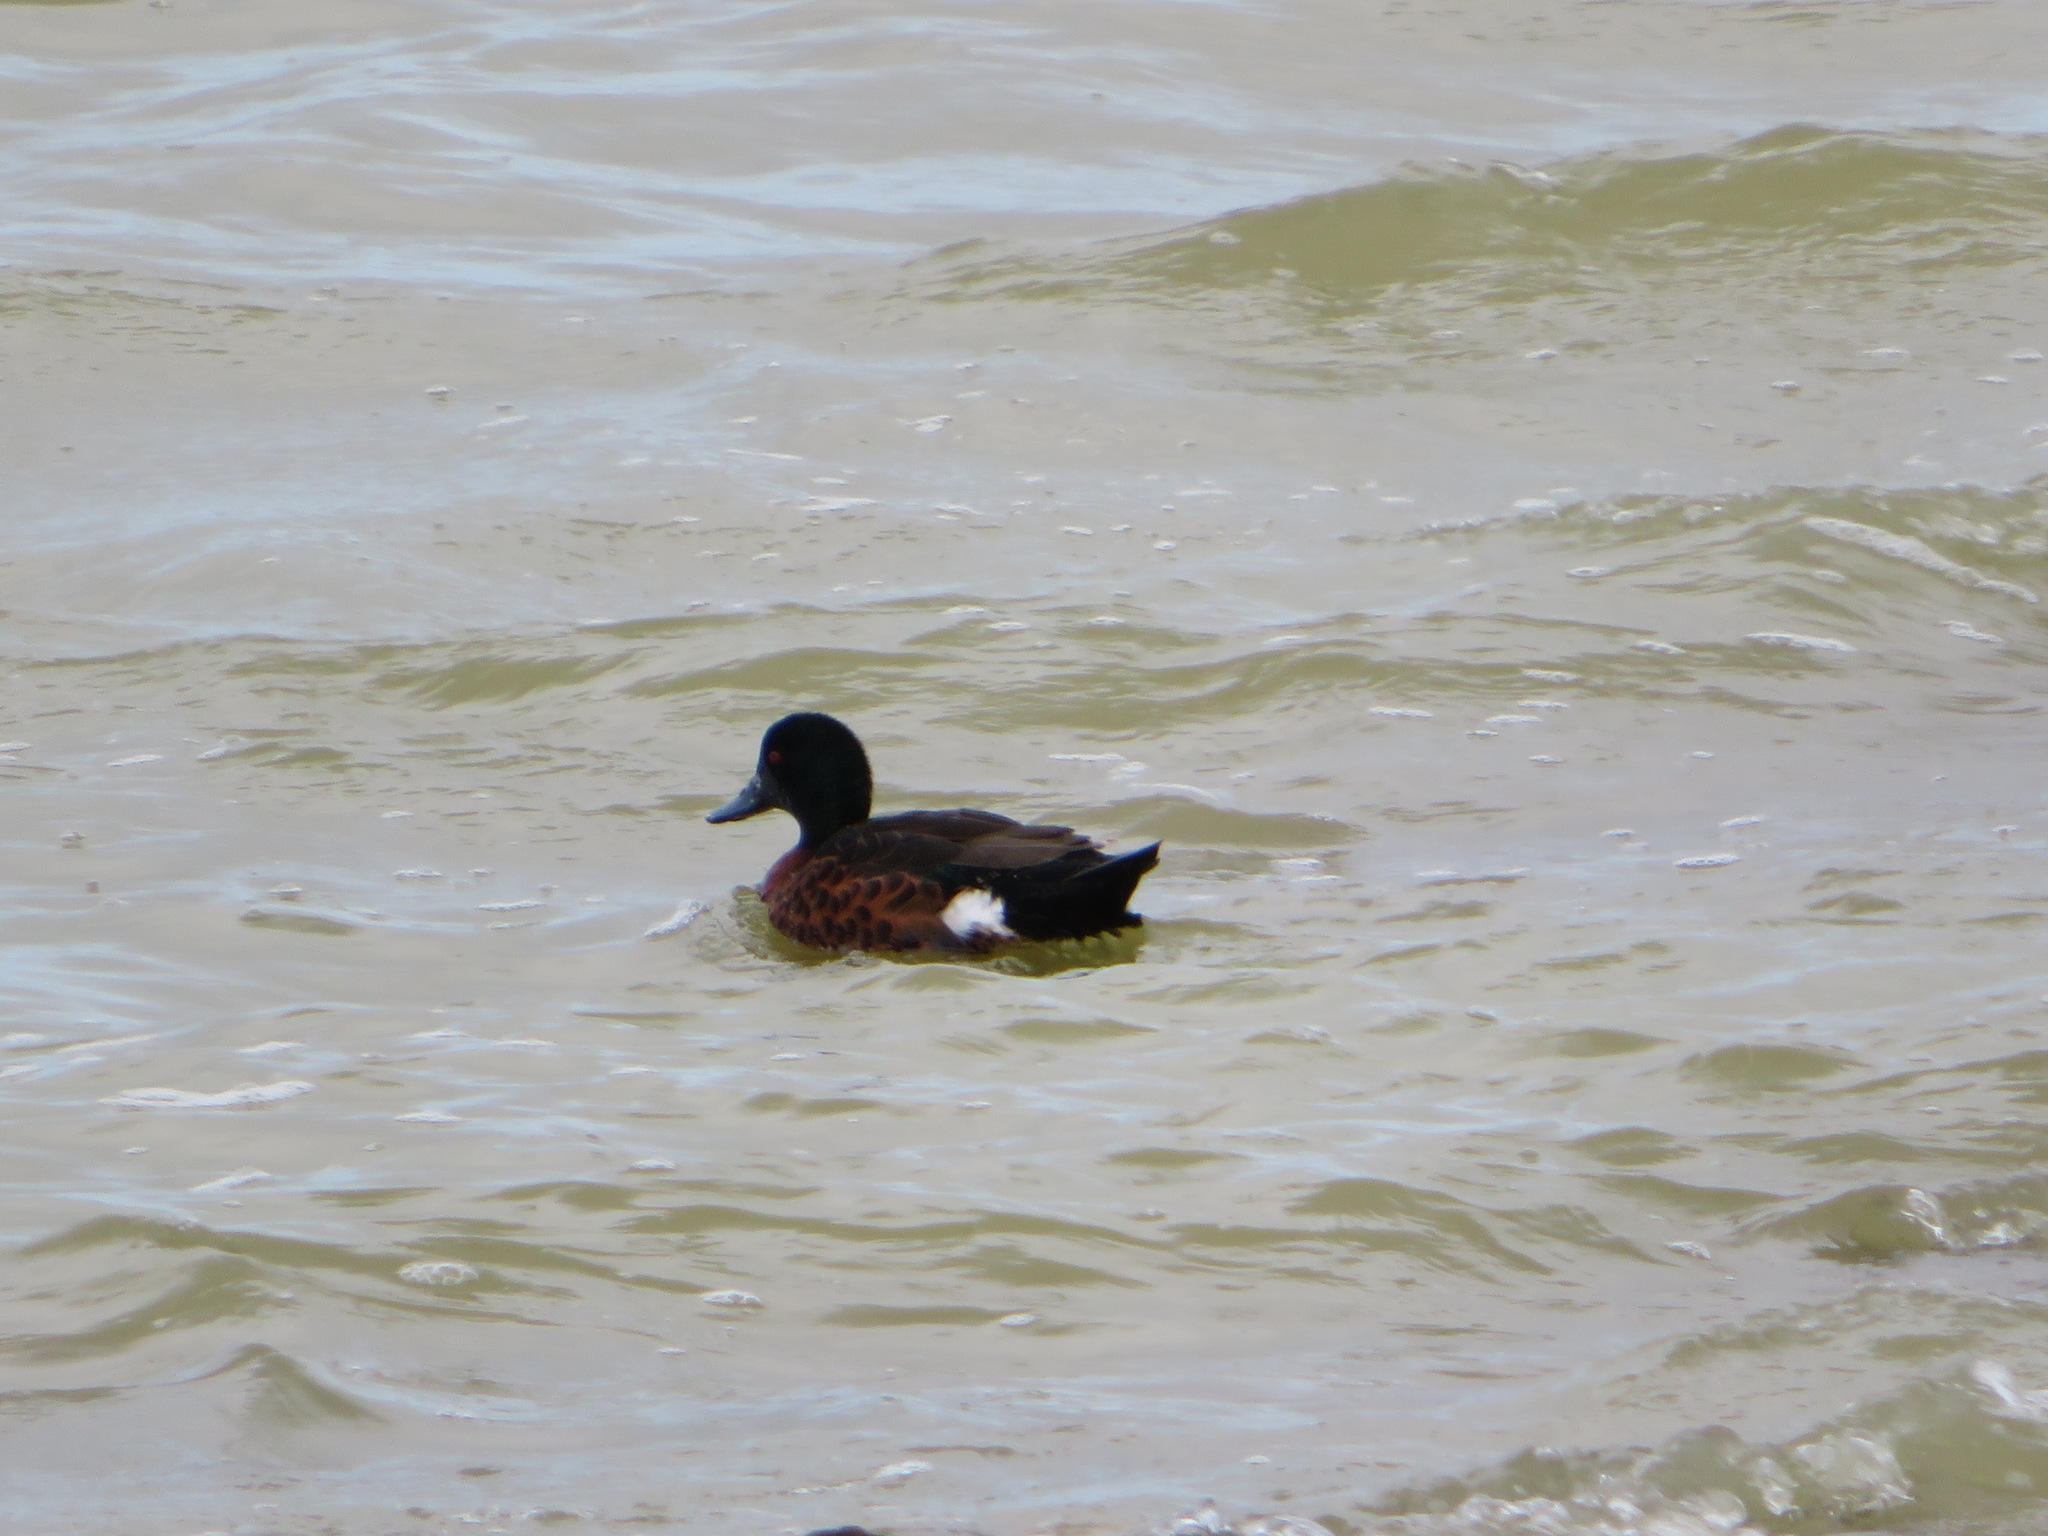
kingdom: Animalia
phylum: Chordata
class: Aves
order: Anseriformes
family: Anatidae
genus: Anas
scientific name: Anas castanea
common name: Chestnut teal
